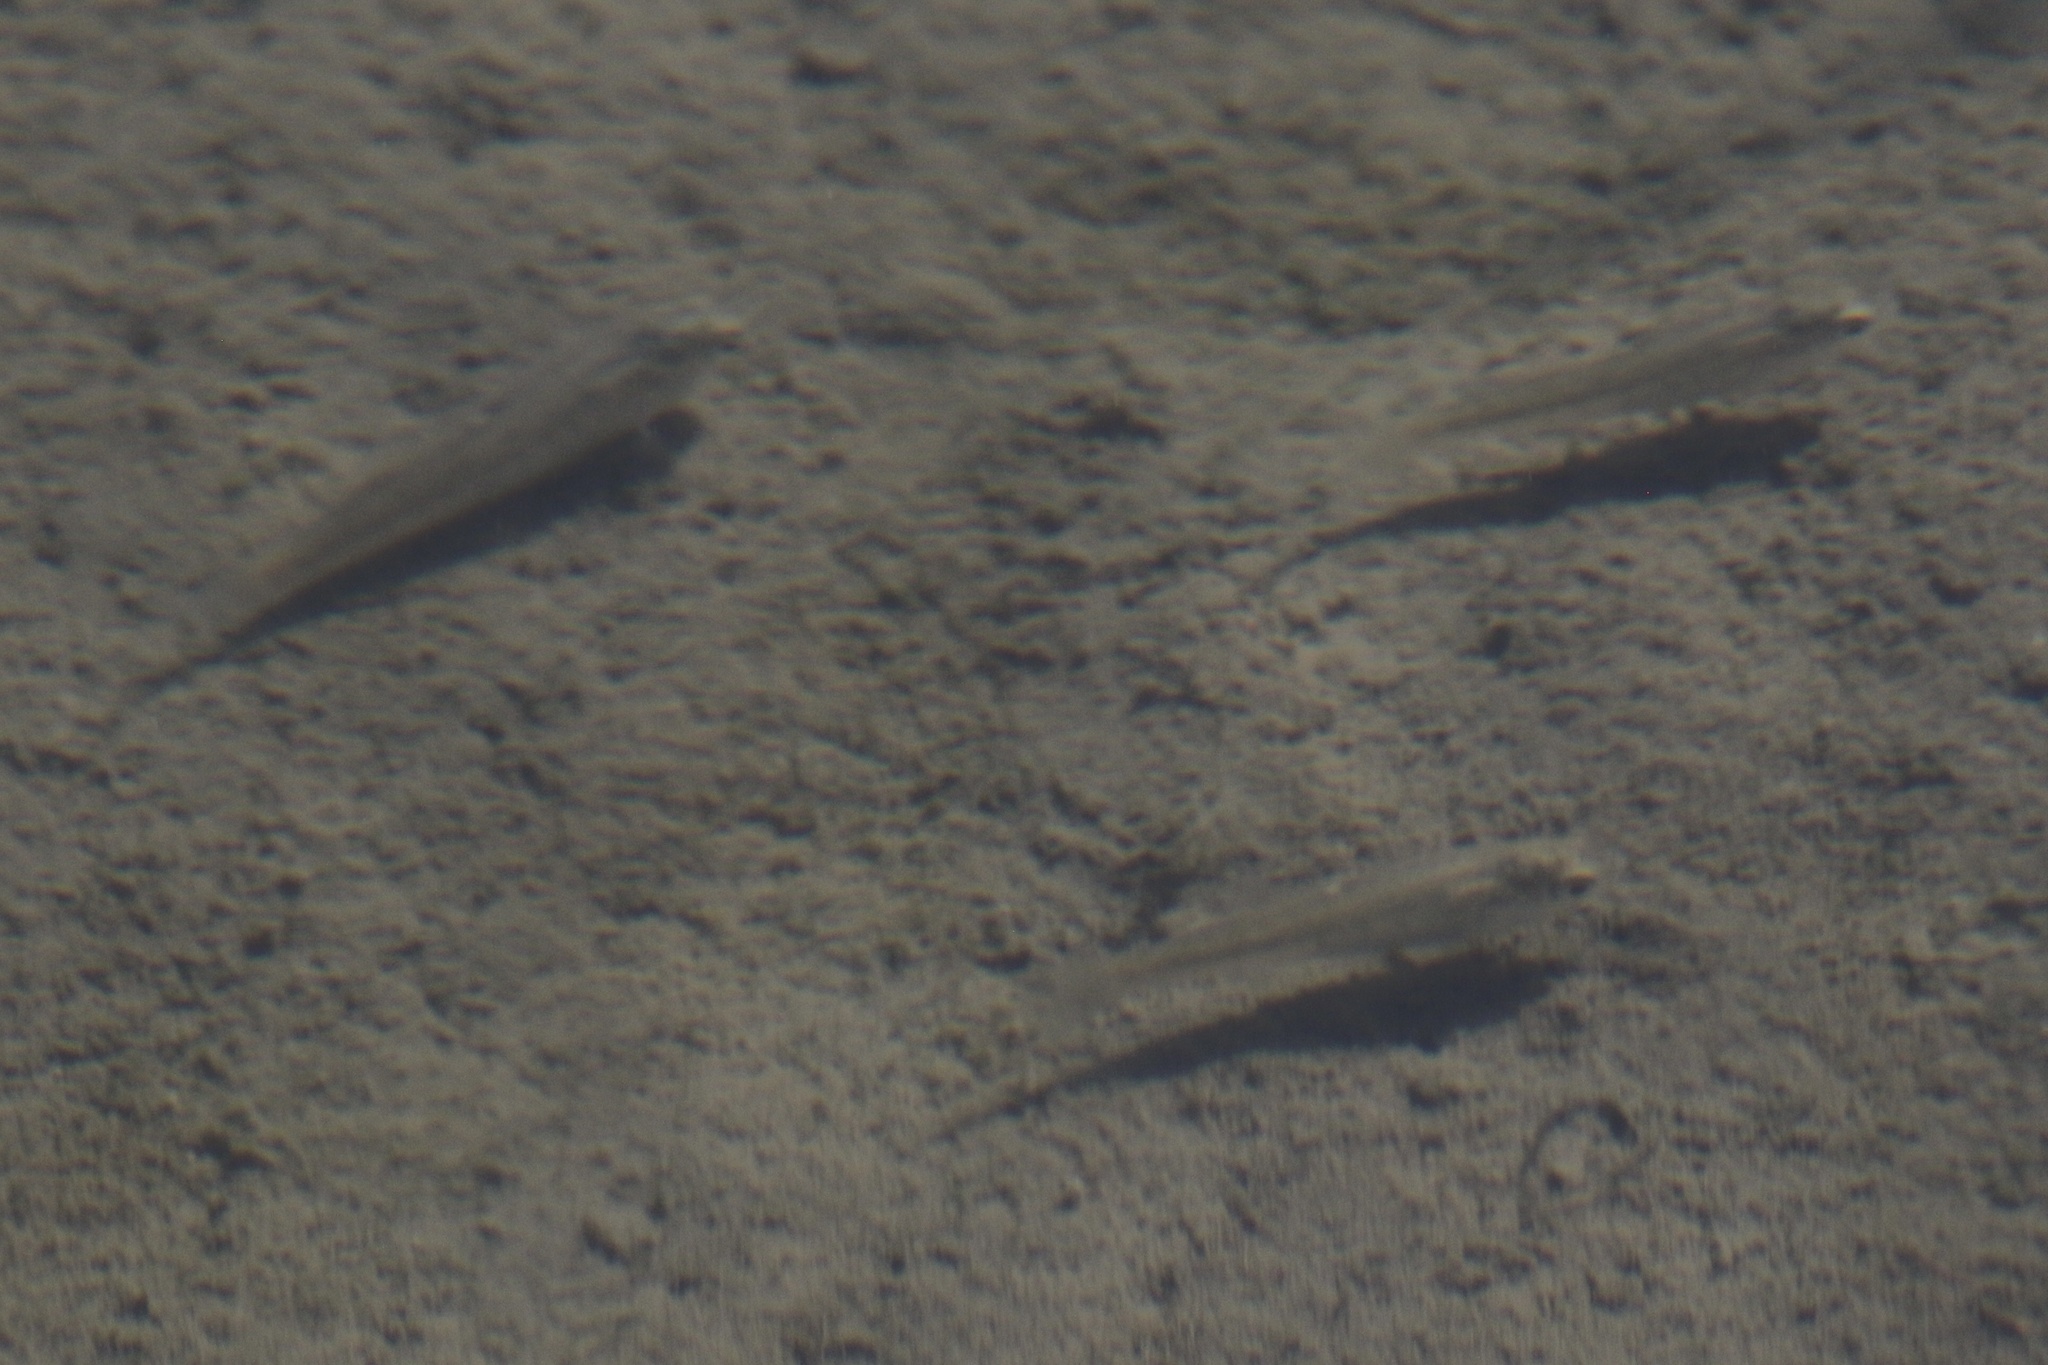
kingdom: Animalia
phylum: Chordata
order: Cyprinodontiformes
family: Fundulidae
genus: Fundulus
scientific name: Fundulus parvipinnis
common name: California killifish
